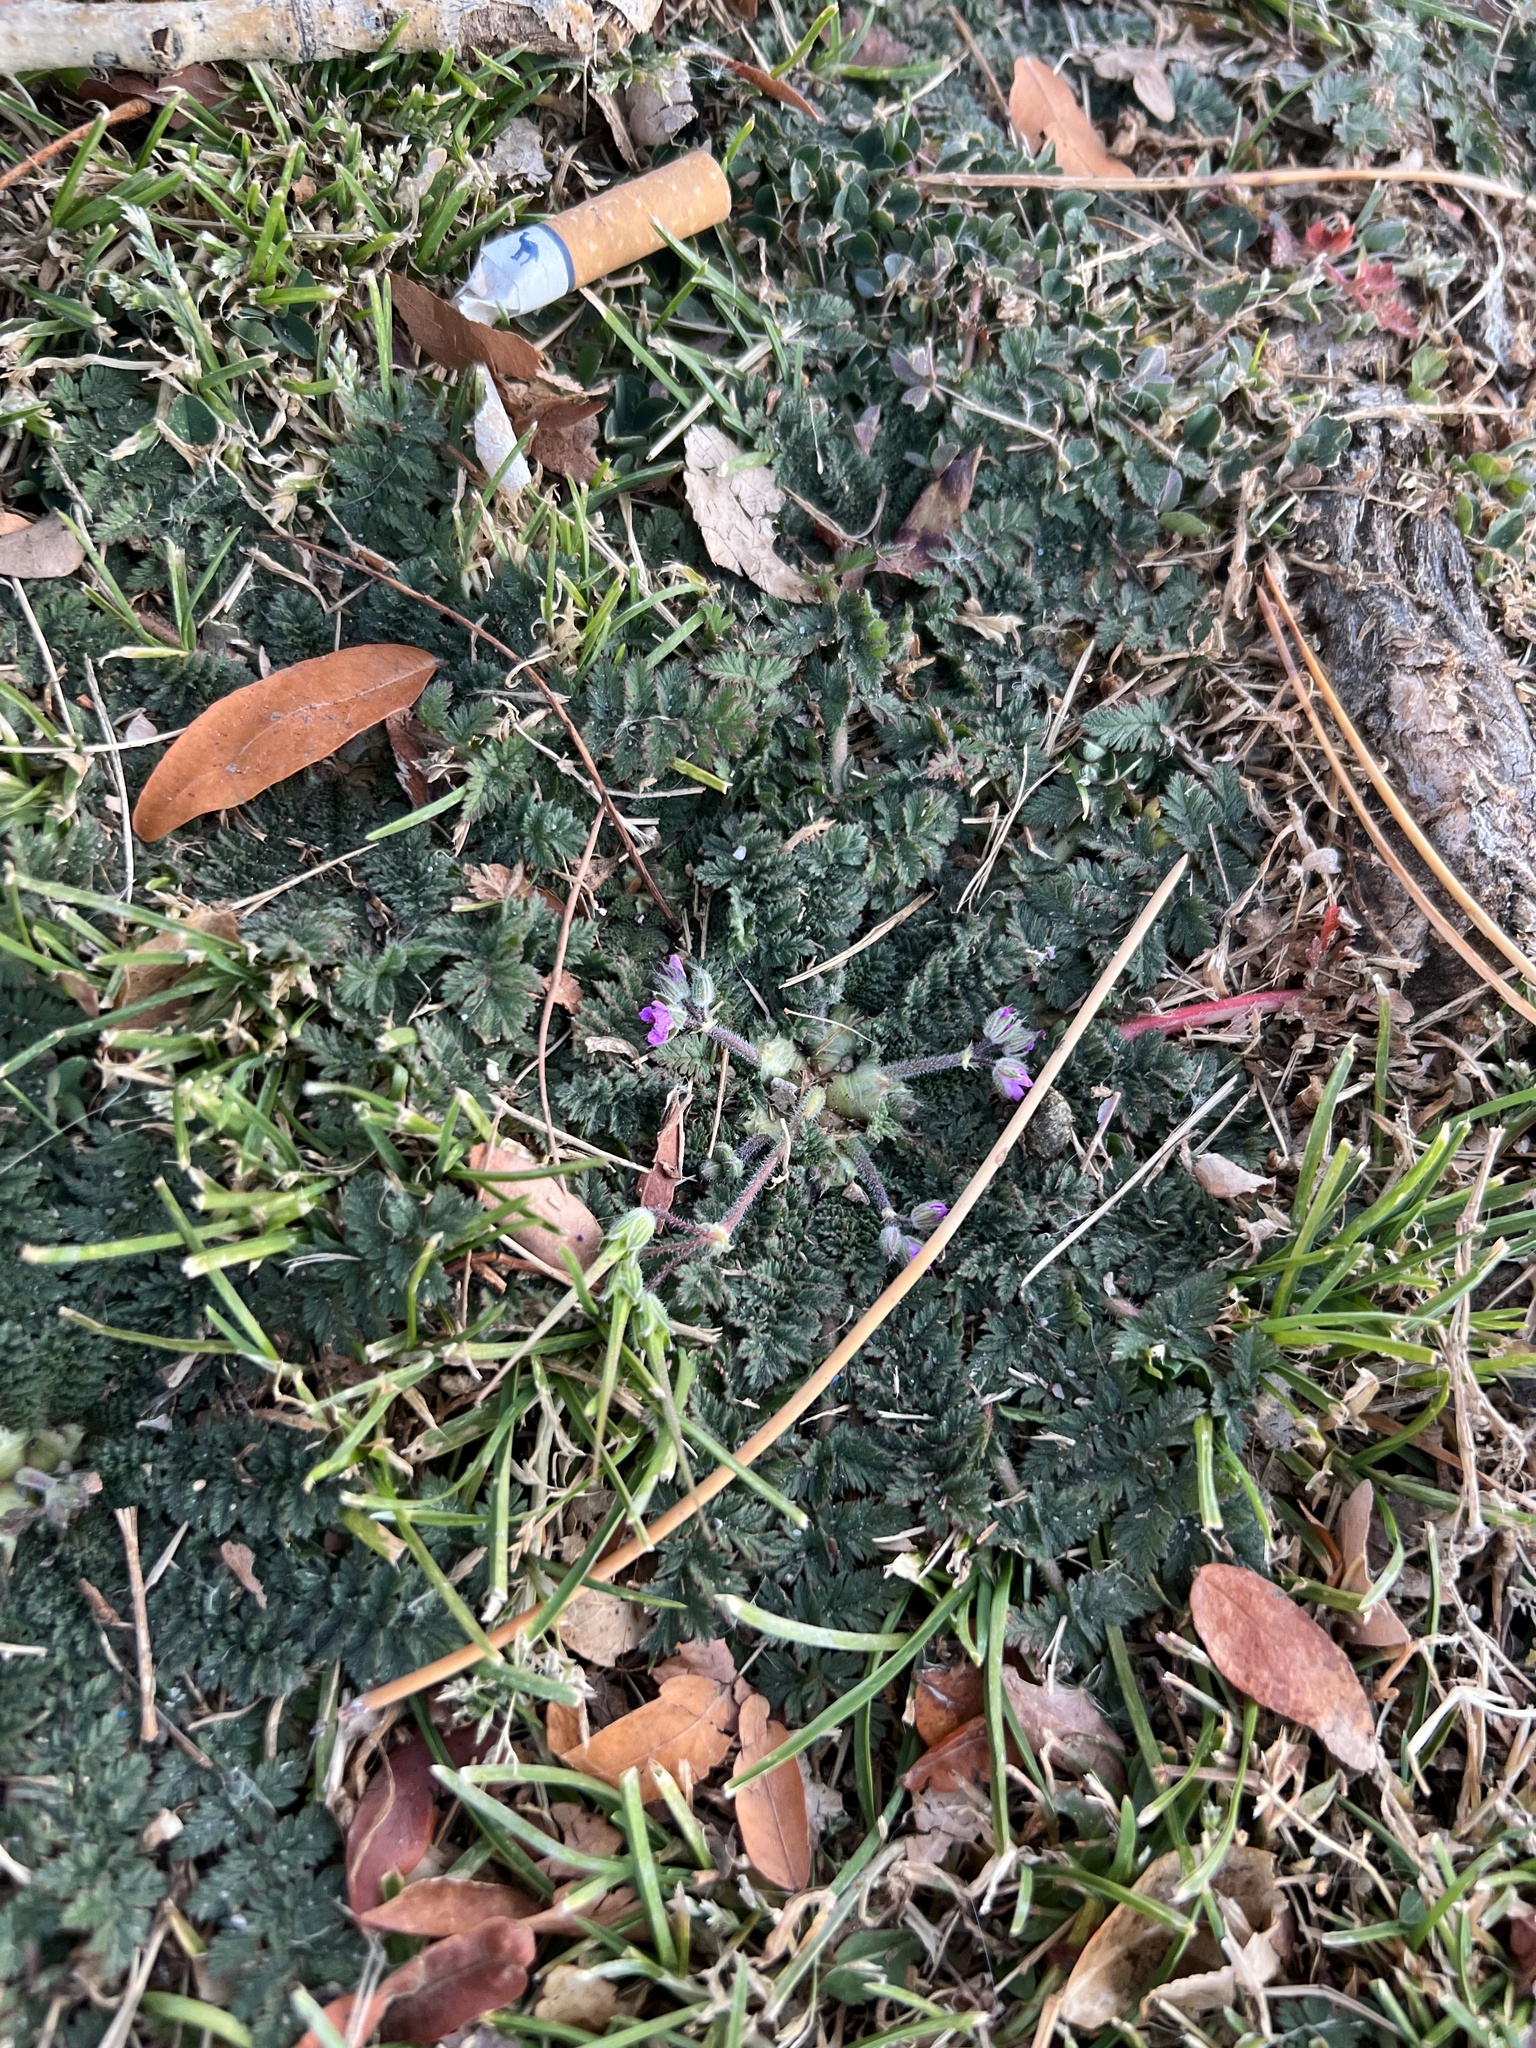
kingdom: Plantae
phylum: Tracheophyta
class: Magnoliopsida
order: Geraniales
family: Geraniaceae
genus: Erodium
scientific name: Erodium cicutarium
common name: Common stork's-bill
